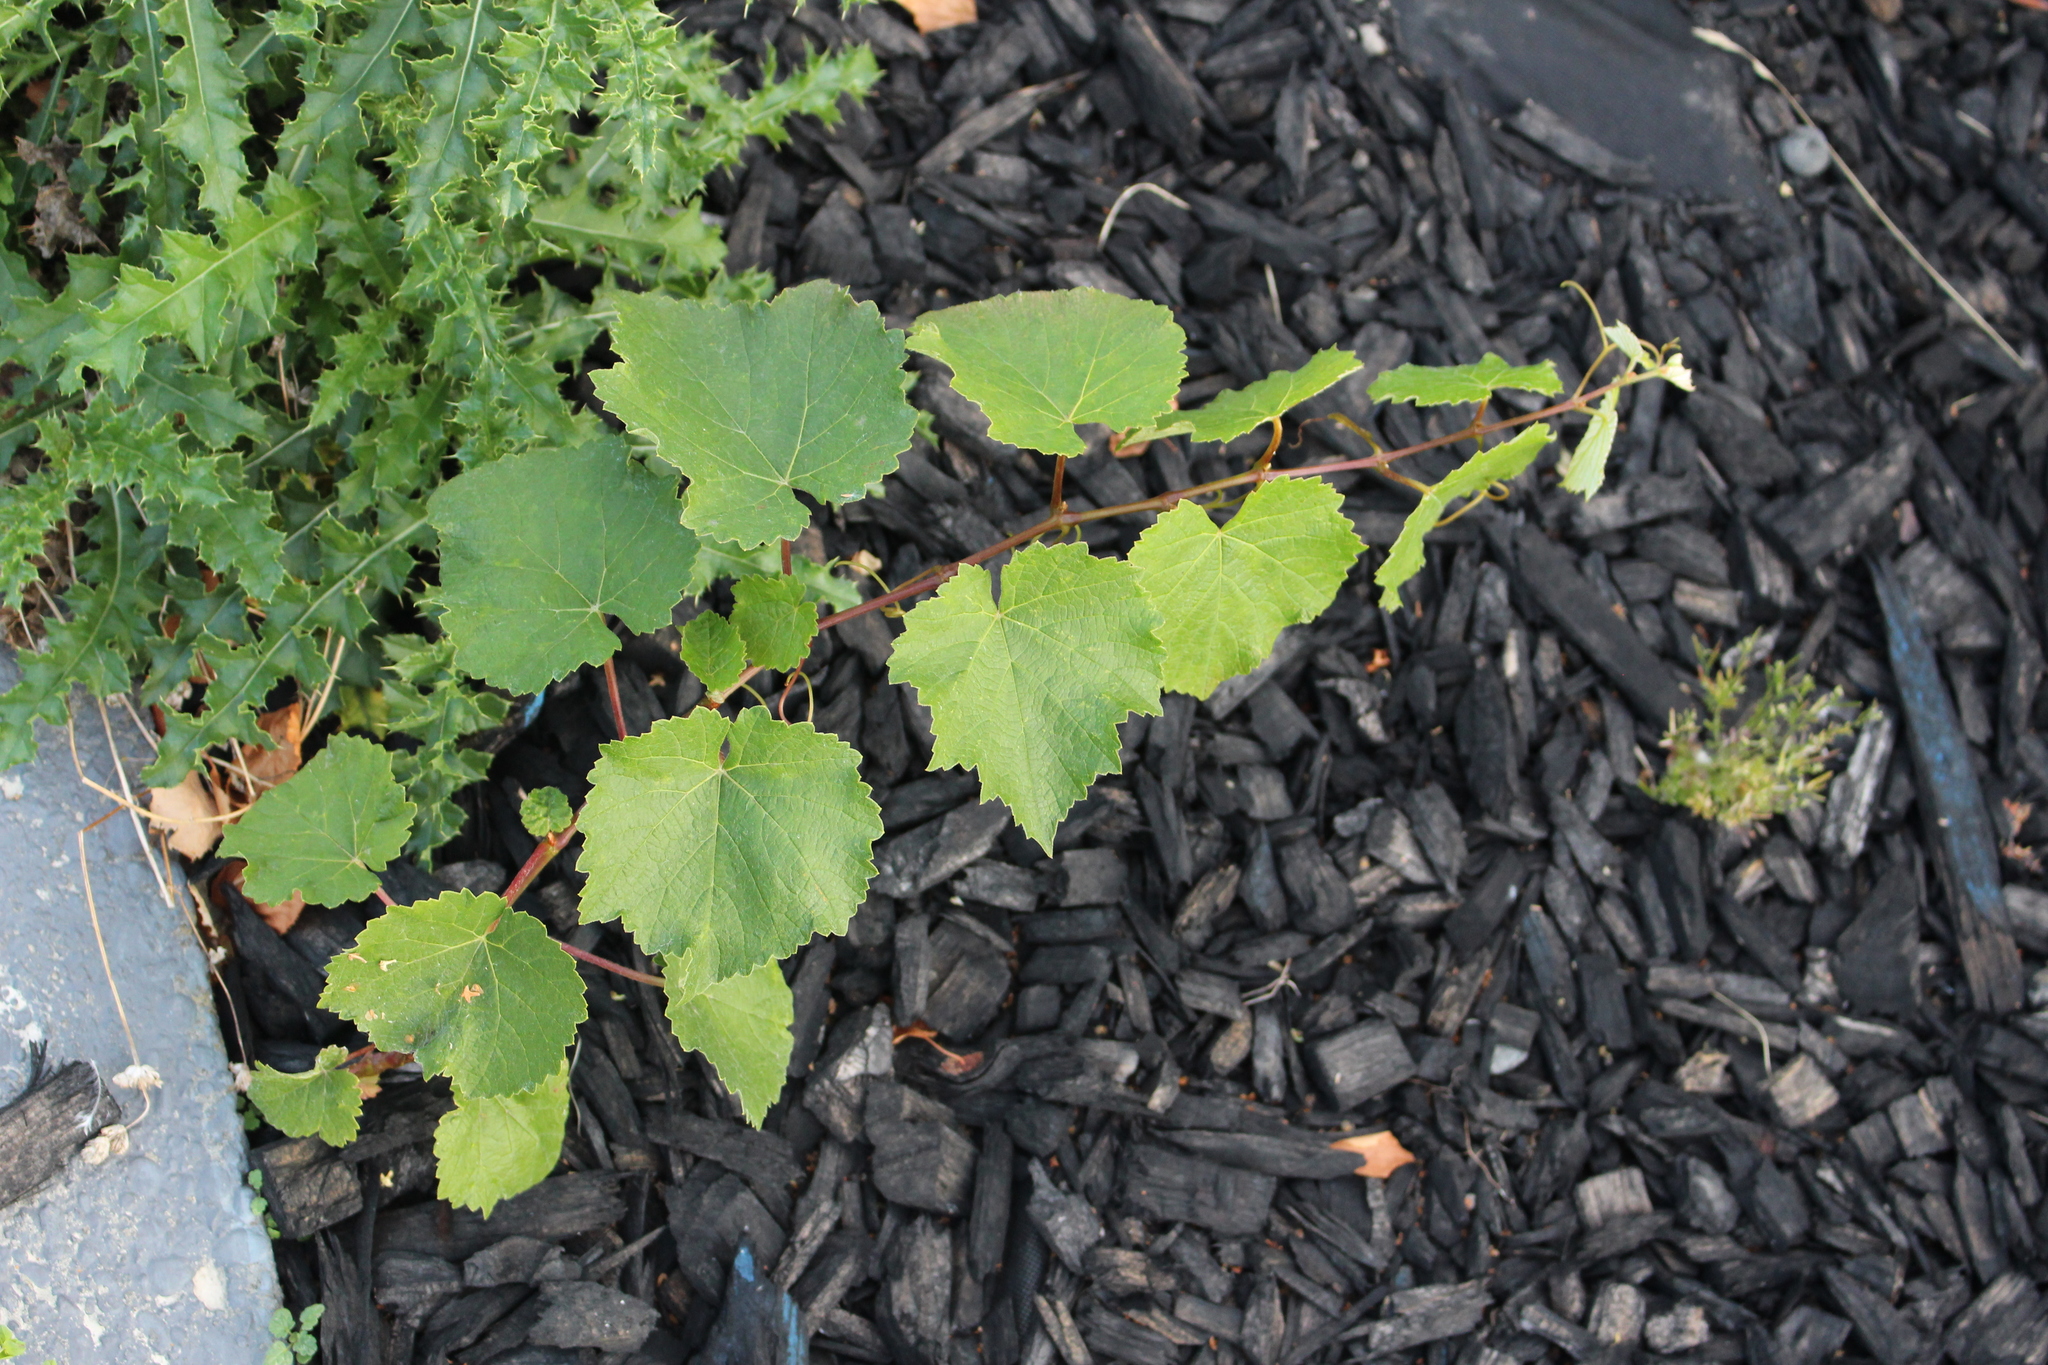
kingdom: Plantae
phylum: Tracheophyta
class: Magnoliopsida
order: Vitales
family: Vitaceae
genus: Vitis
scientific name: Vitis vinifera
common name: Grape-vine
